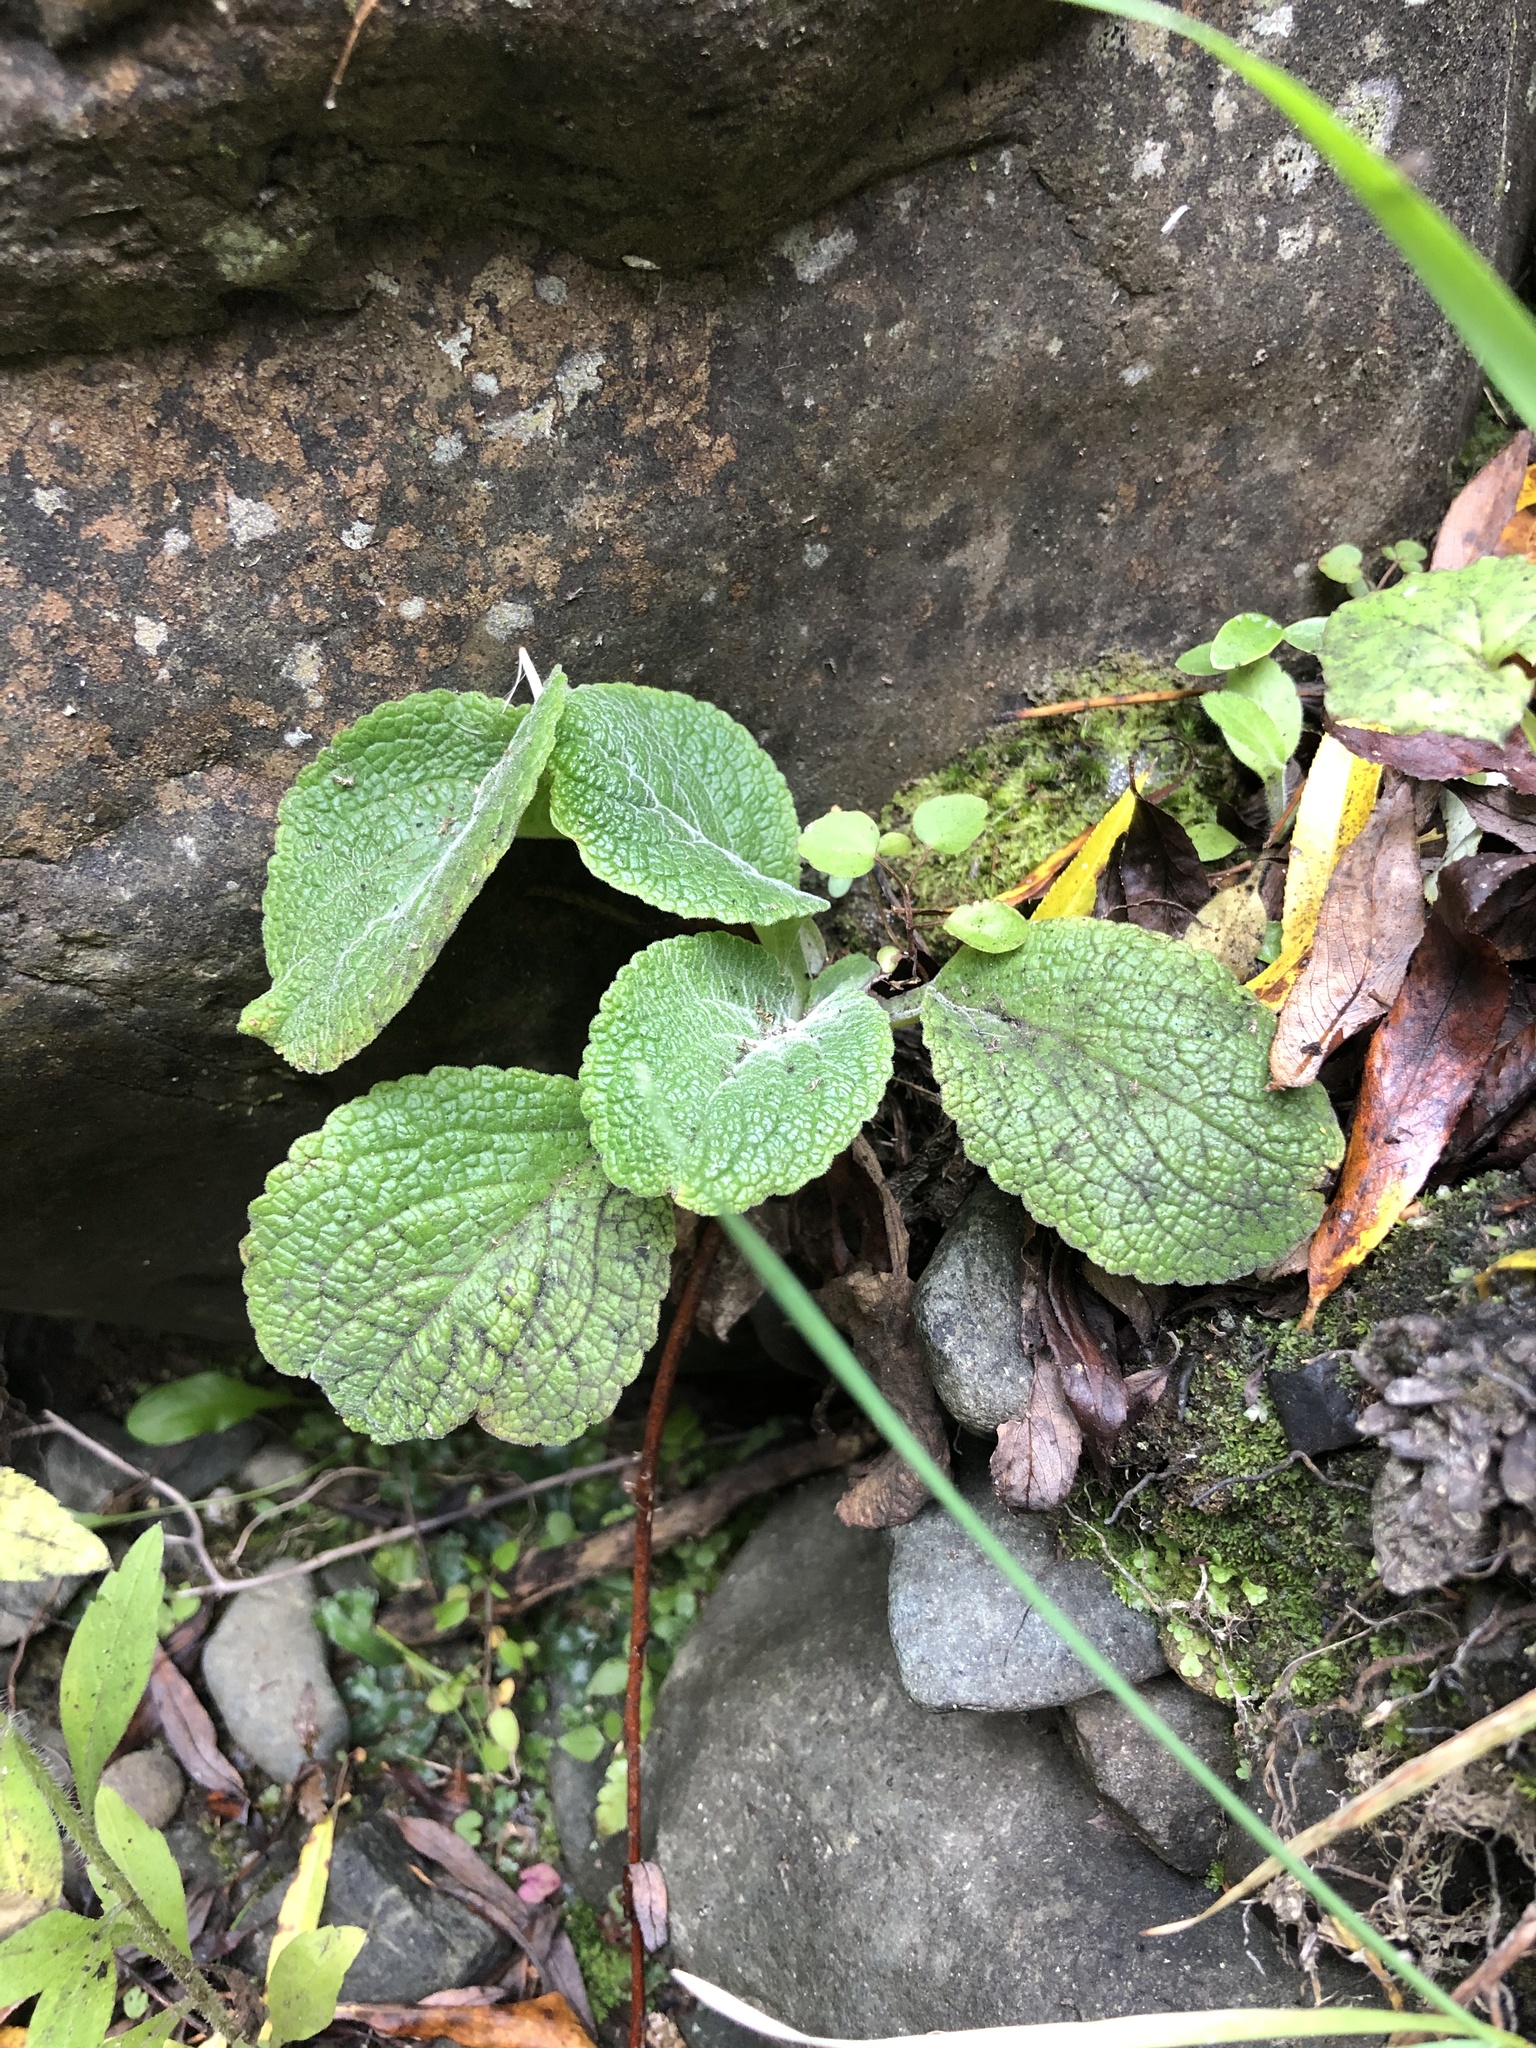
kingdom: Plantae
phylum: Tracheophyta
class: Magnoliopsida
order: Lamiales
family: Plantaginaceae
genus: Digitalis
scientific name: Digitalis purpurea
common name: Foxglove
